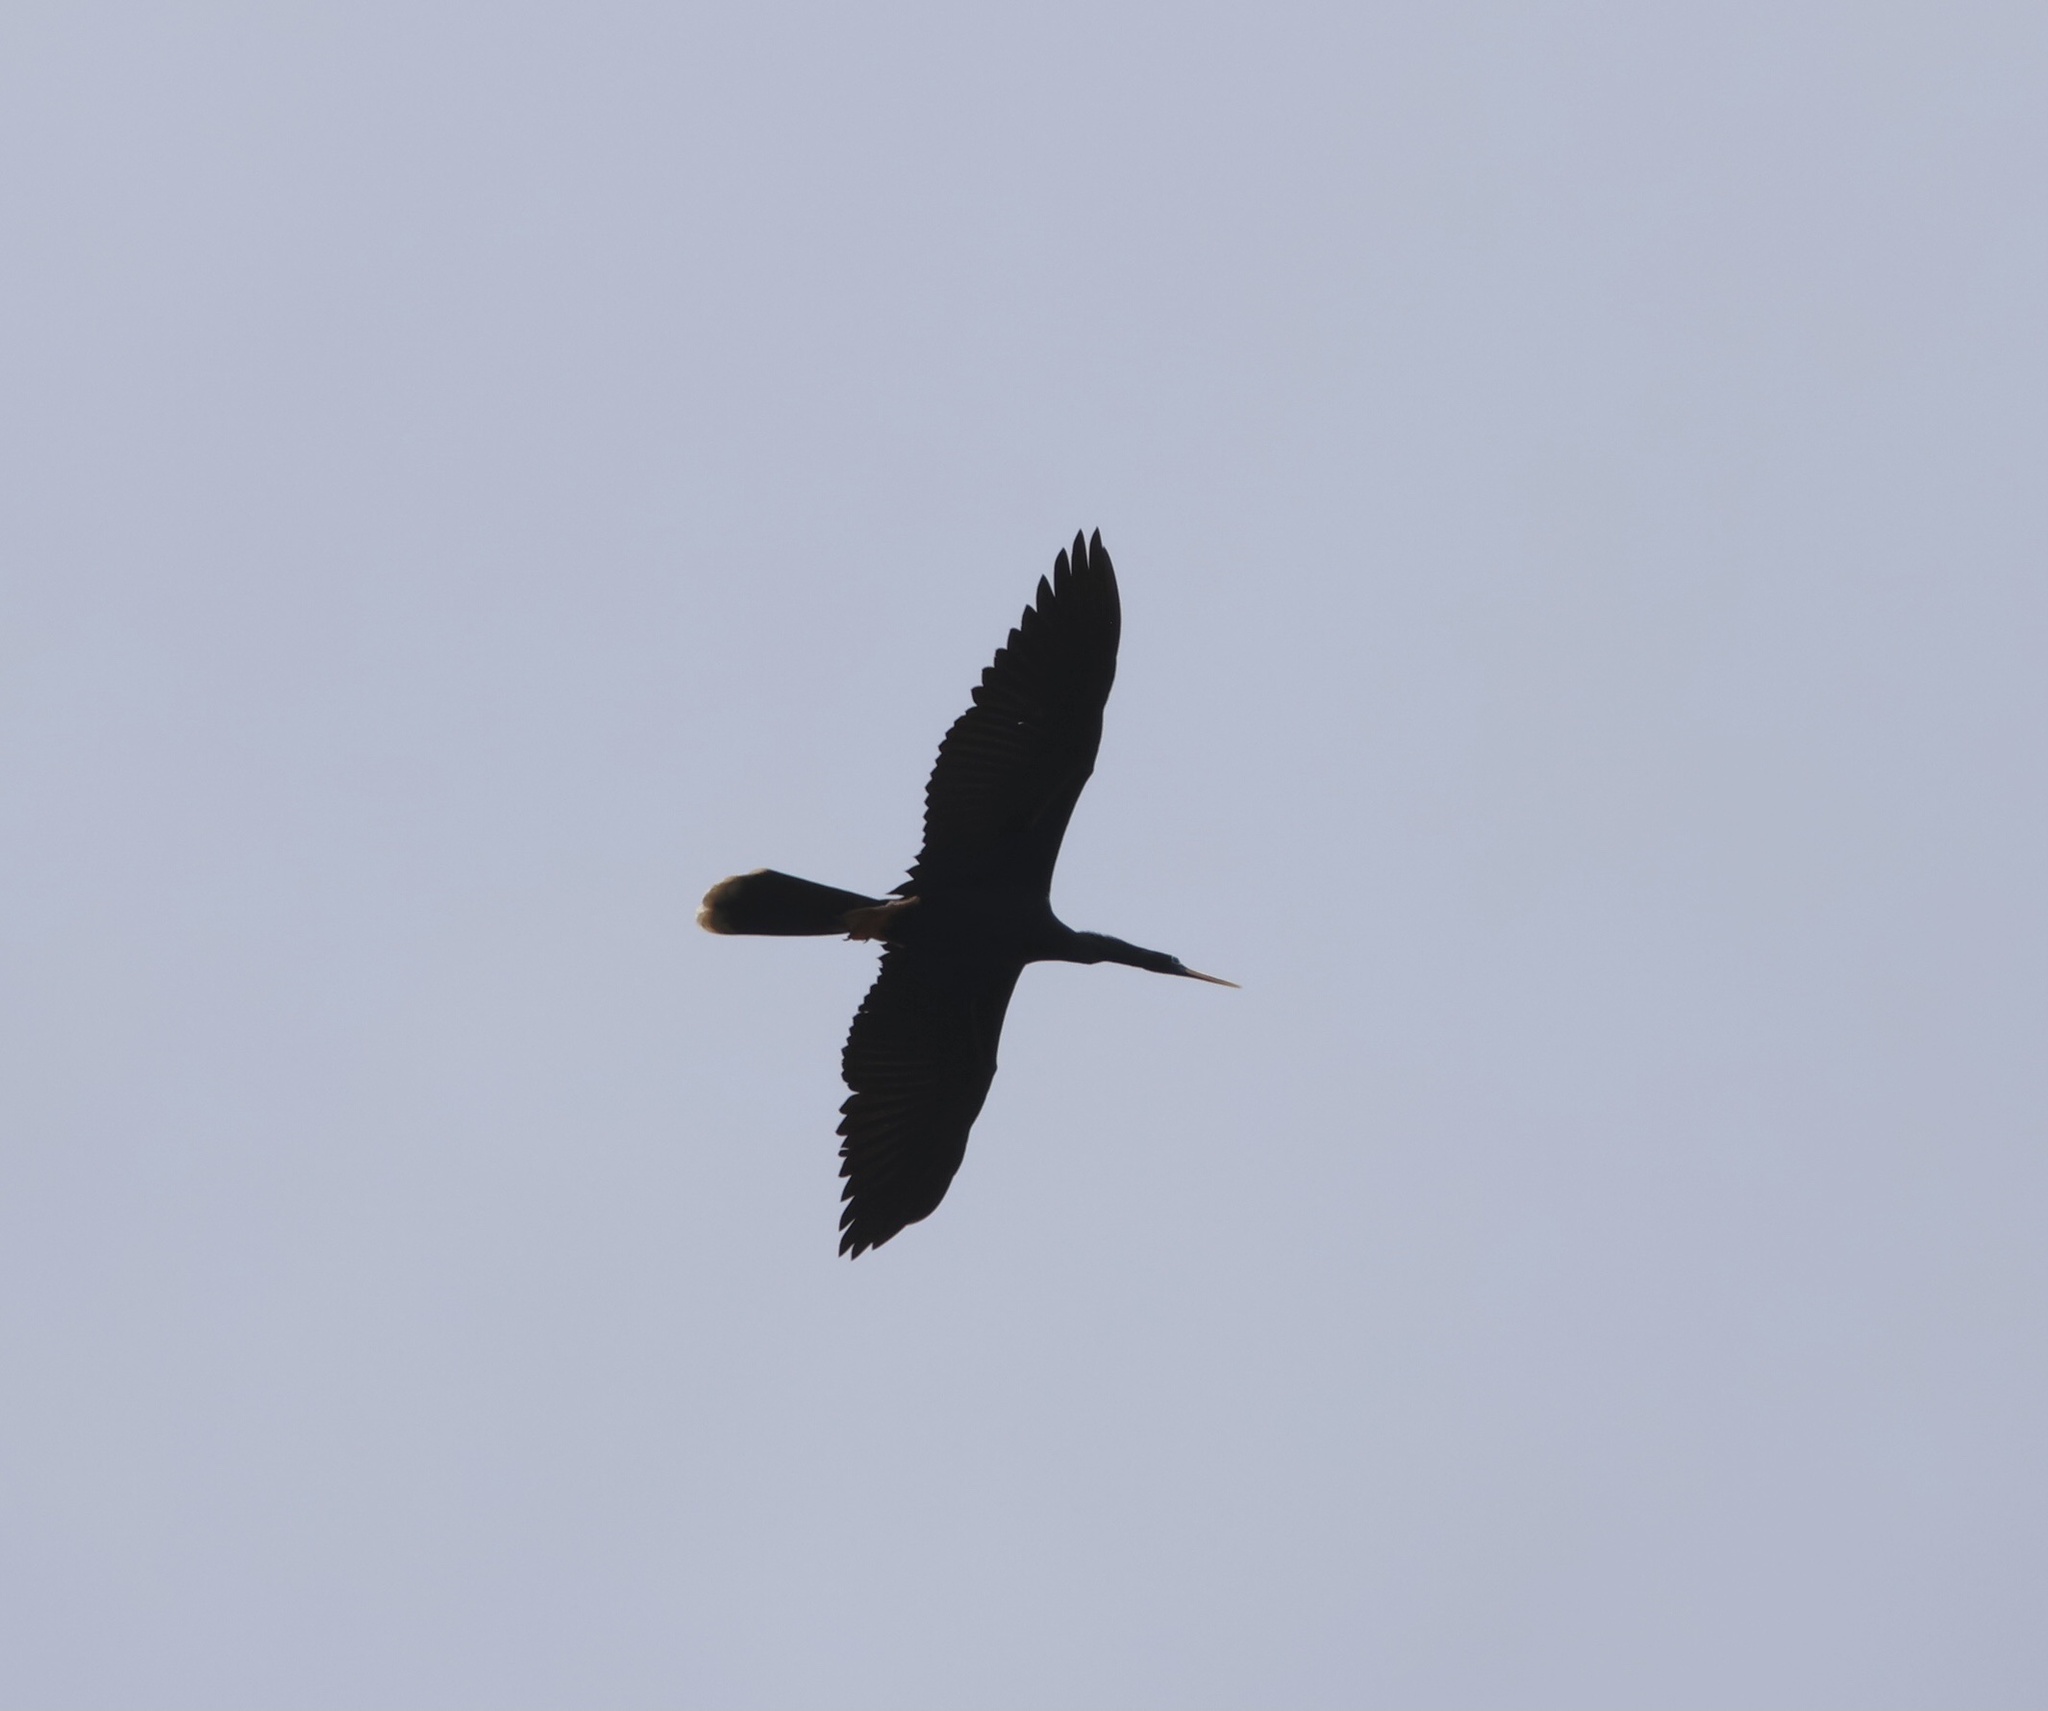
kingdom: Animalia
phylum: Chordata
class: Aves
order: Suliformes
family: Anhingidae
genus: Anhinga
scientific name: Anhinga anhinga
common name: Anhinga
